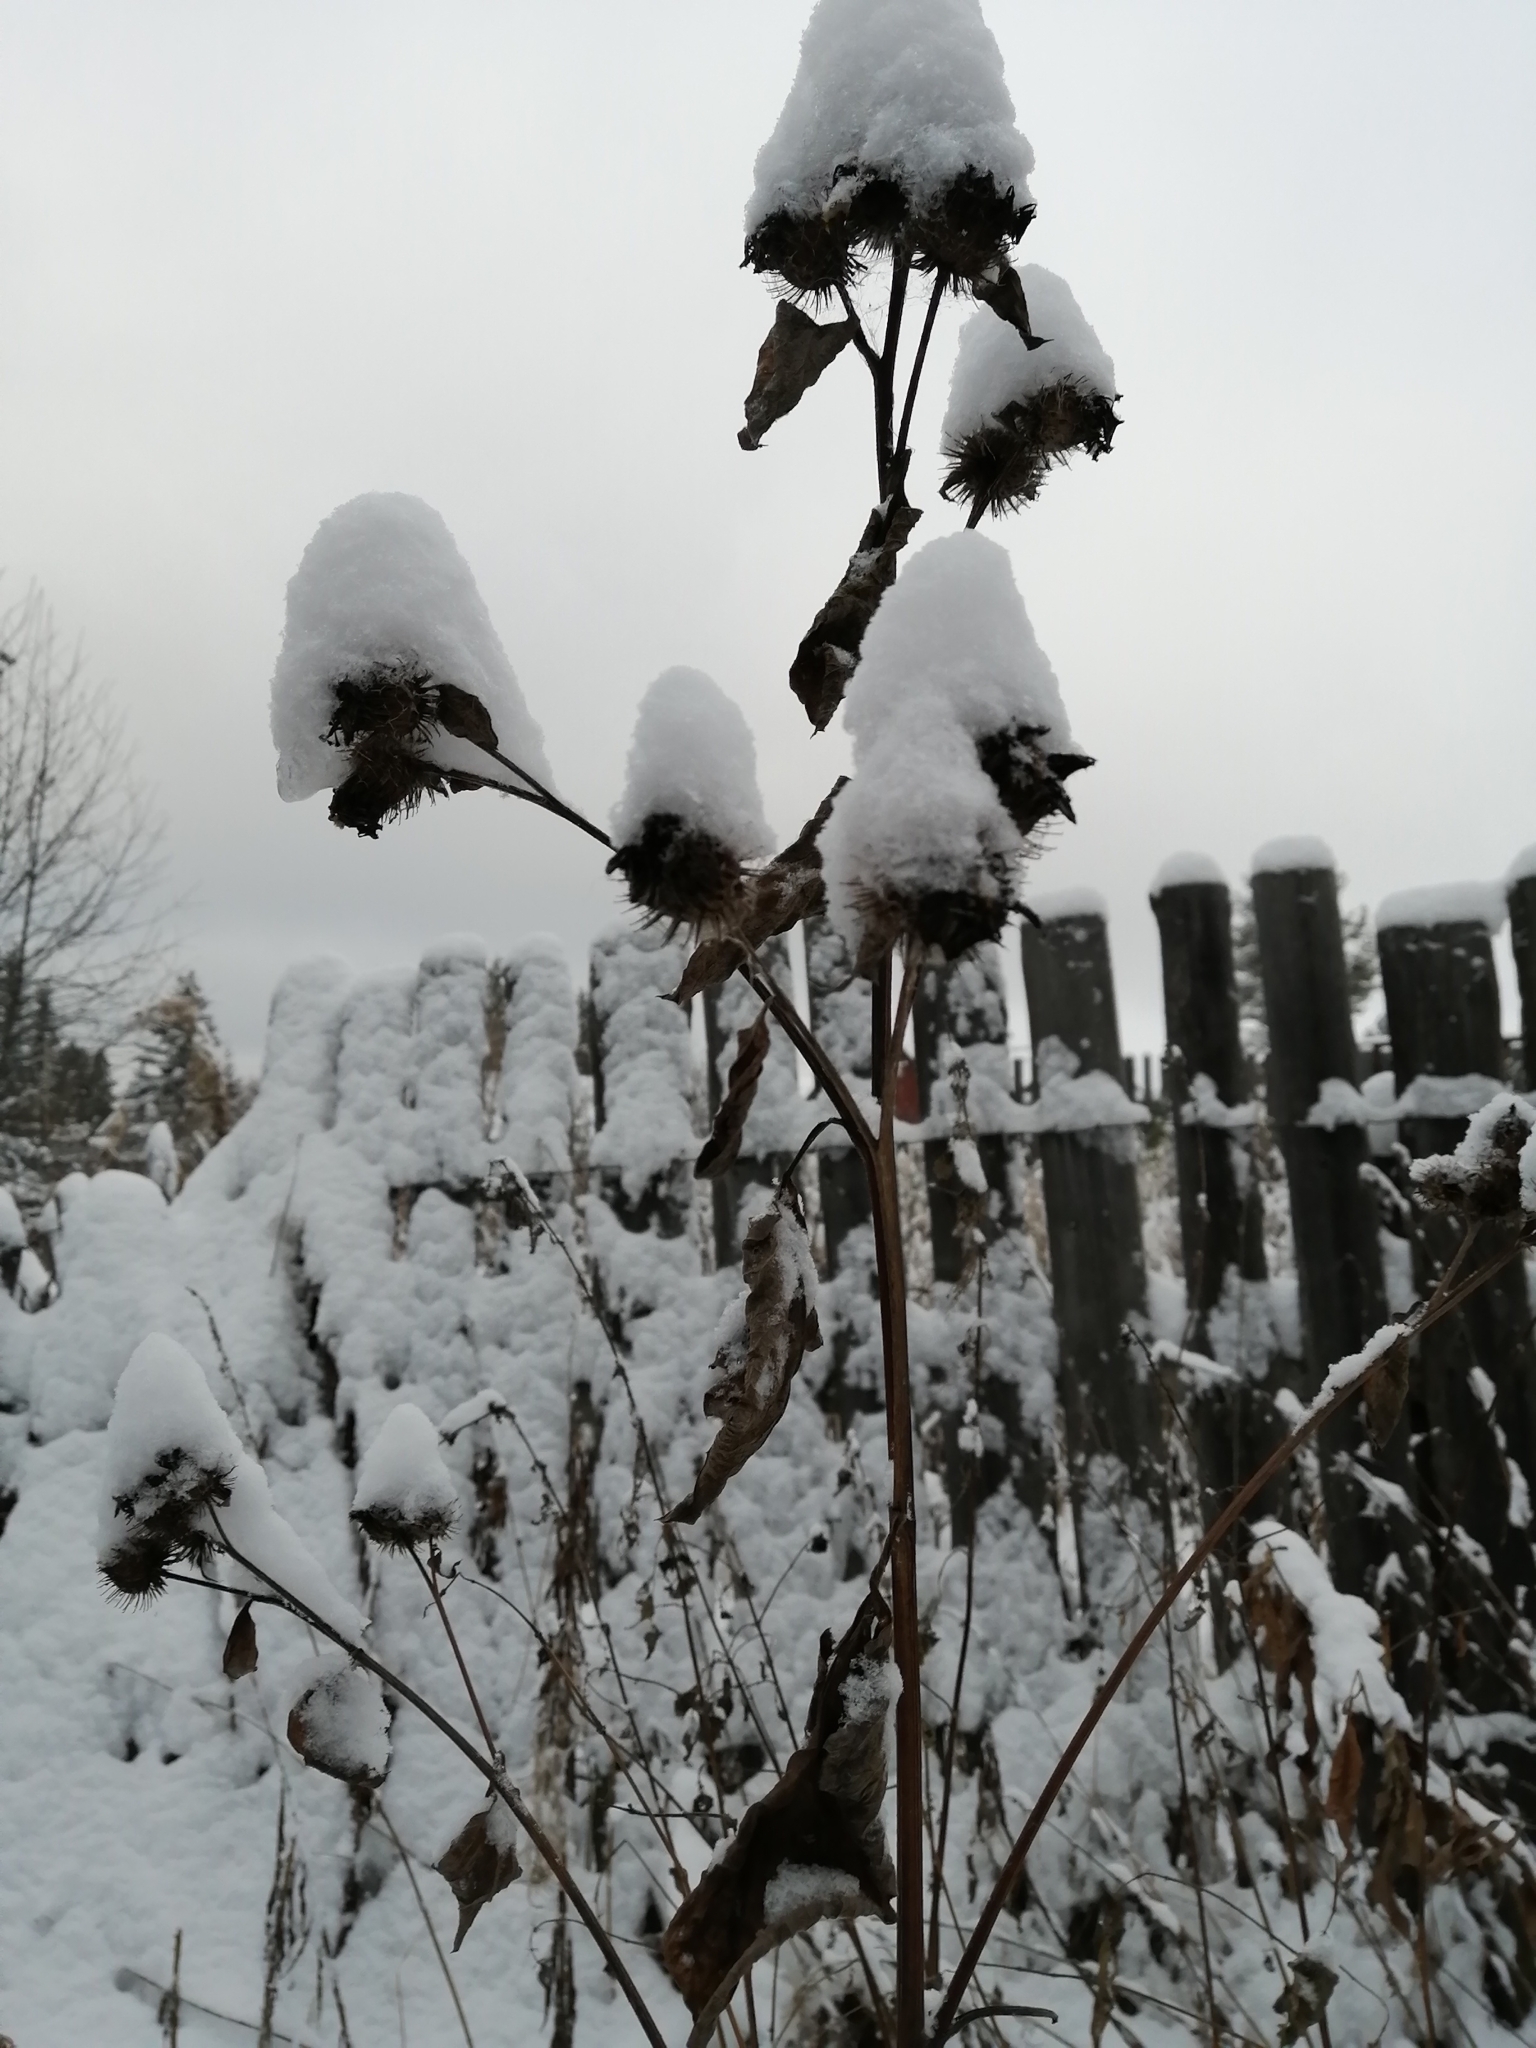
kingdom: Plantae
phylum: Tracheophyta
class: Magnoliopsida
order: Asterales
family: Asteraceae
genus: Arctium
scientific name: Arctium tomentosum
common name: Woolly burdock
